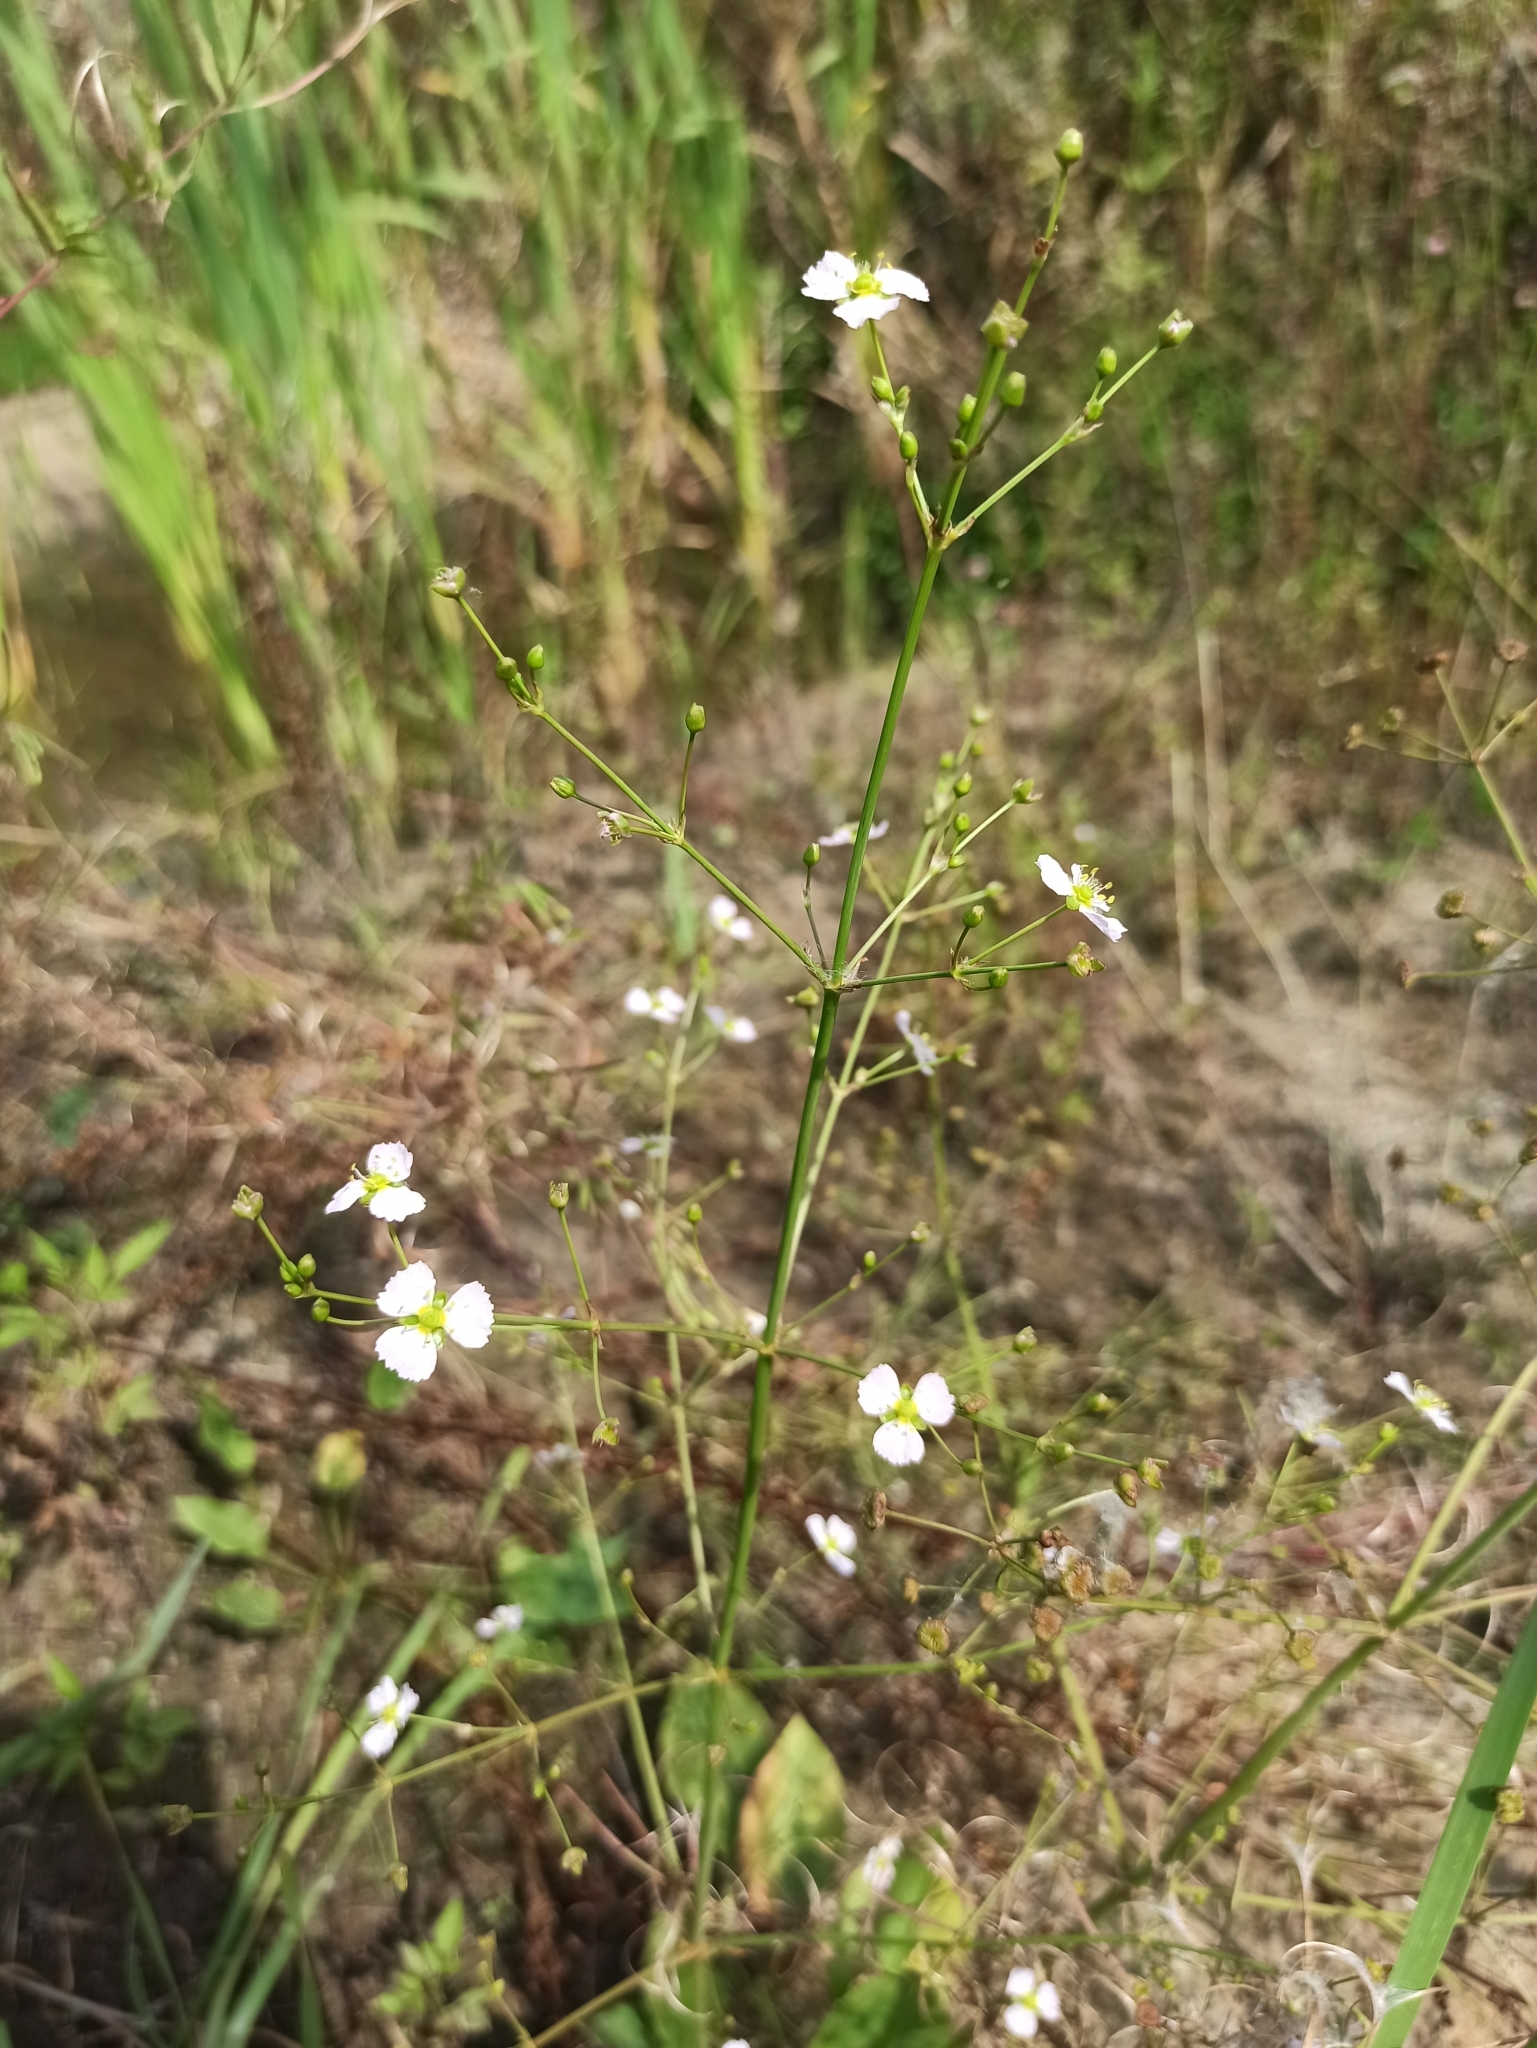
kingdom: Plantae
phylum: Tracheophyta
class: Liliopsida
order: Alismatales
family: Alismataceae
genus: Alisma
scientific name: Alisma plantago-aquatica
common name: Water-plantain
